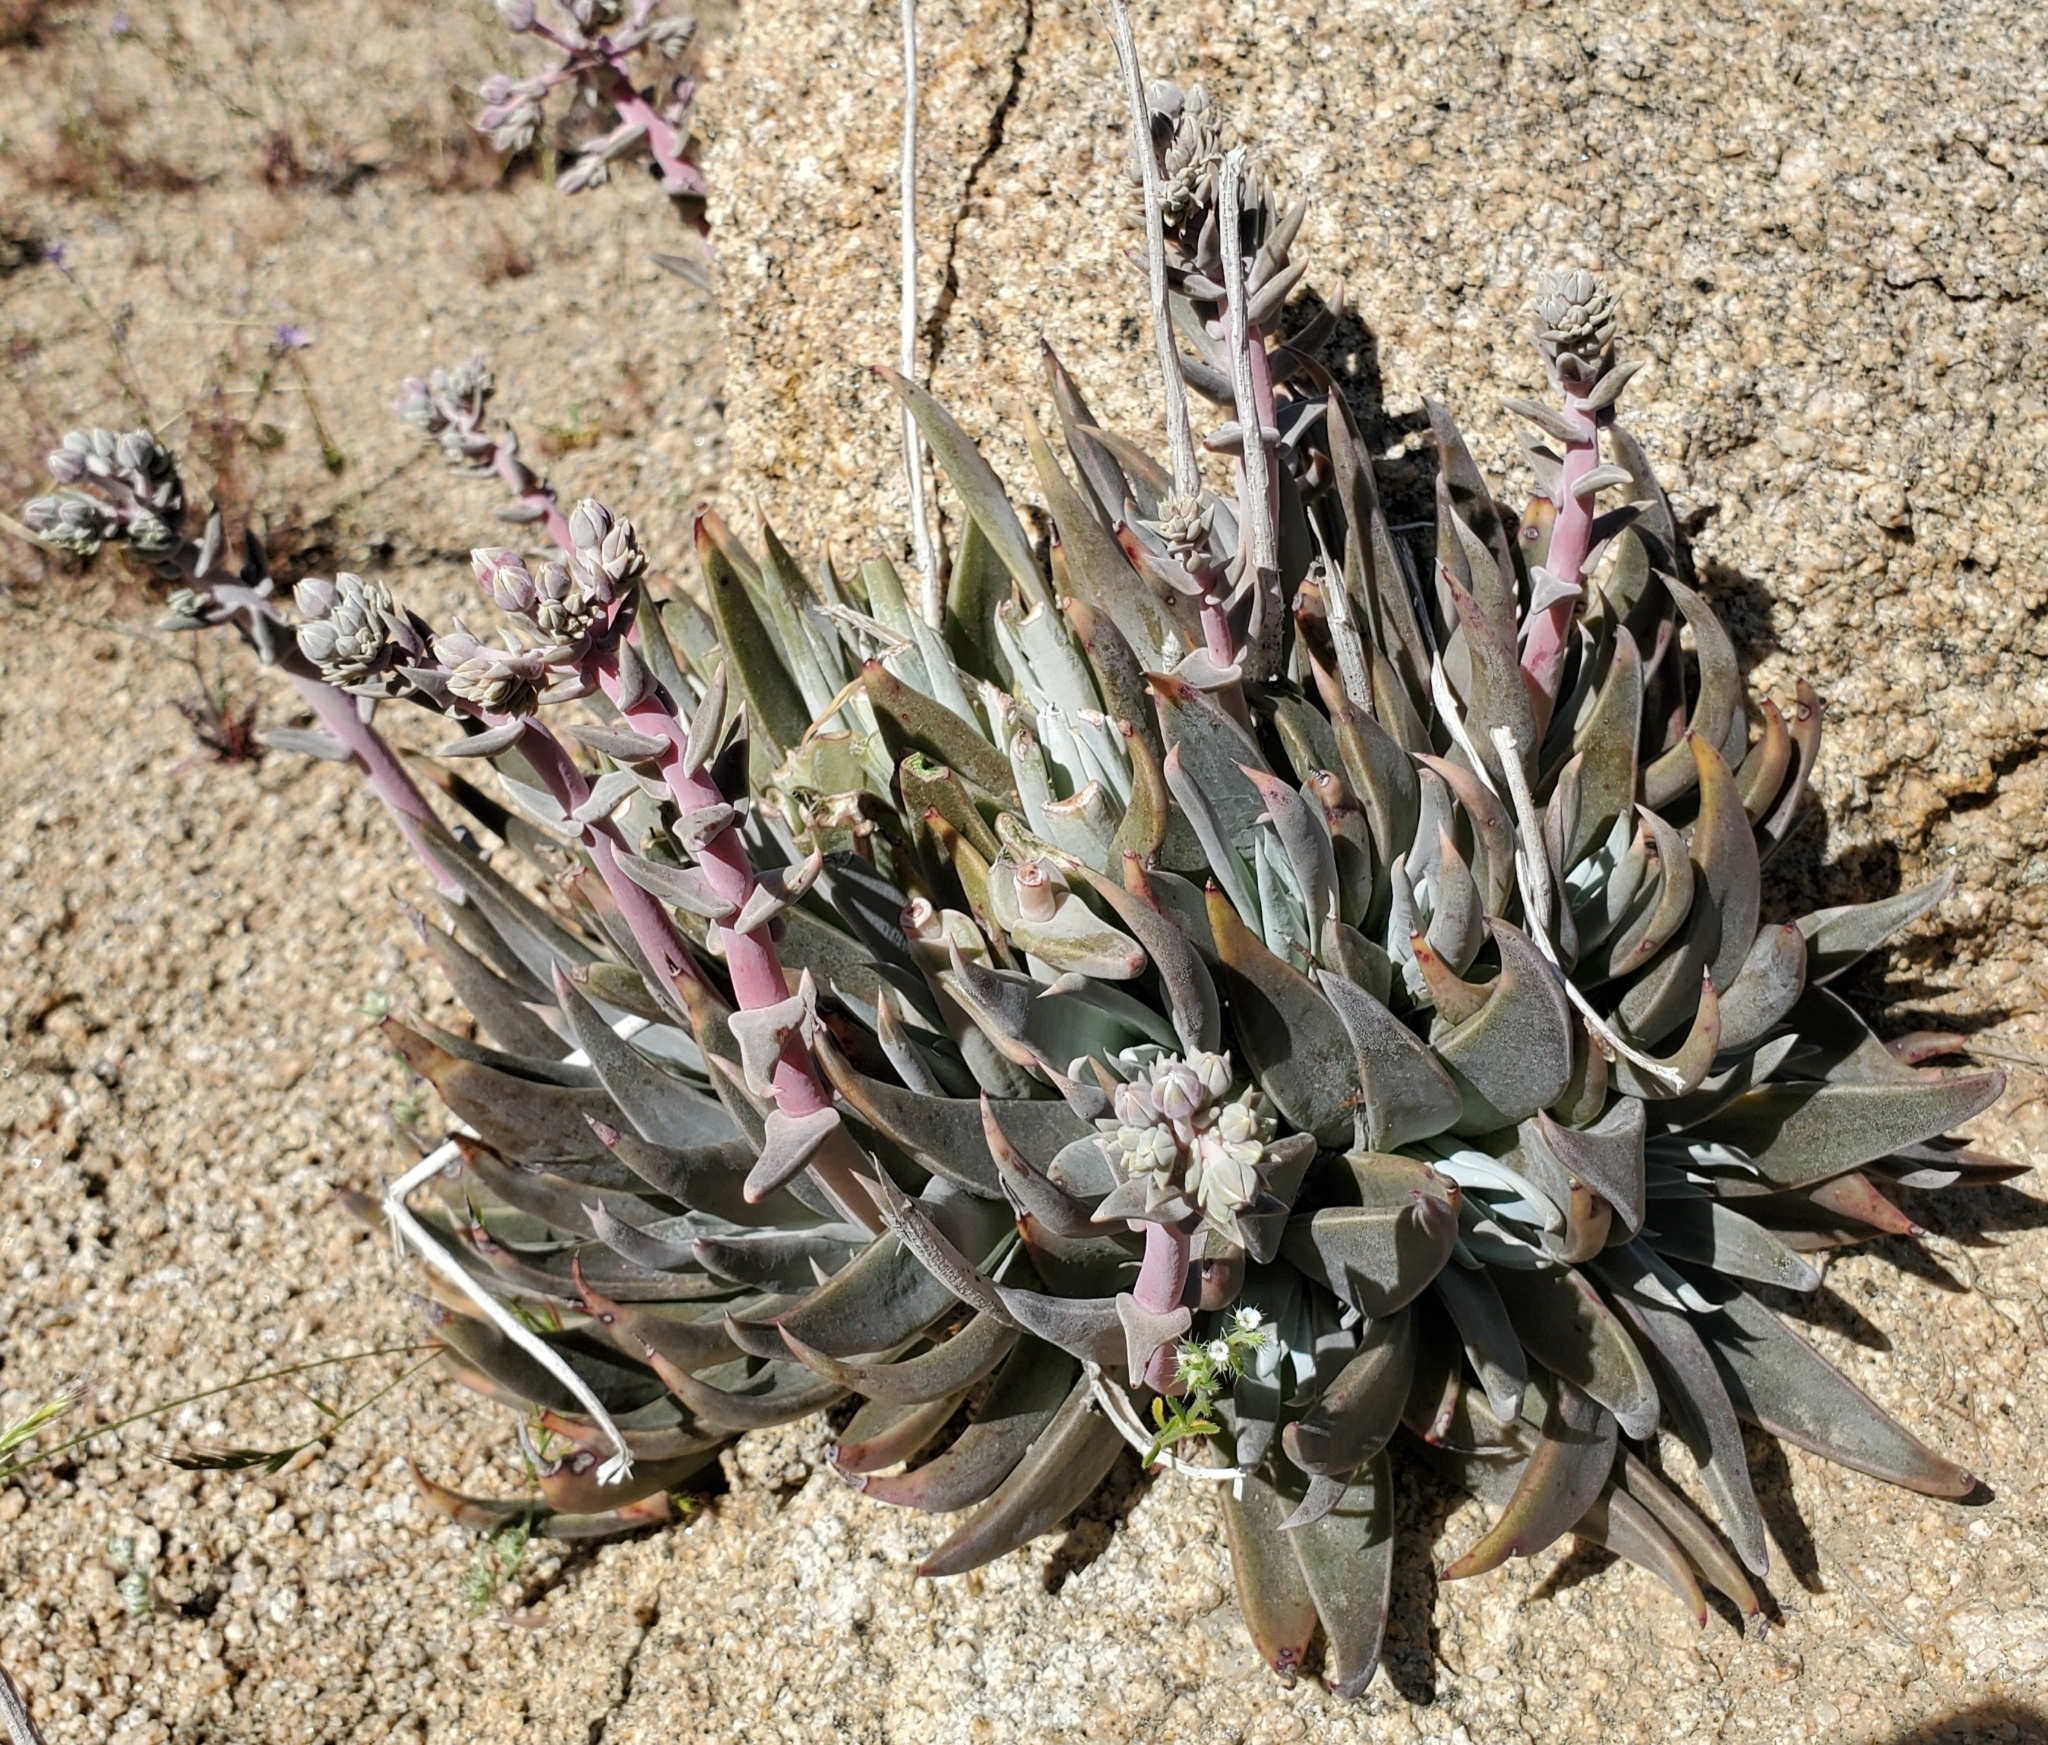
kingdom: Plantae
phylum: Tracheophyta
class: Magnoliopsida
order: Saxifragales
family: Crassulaceae
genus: Dudleya
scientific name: Dudleya saxosa
